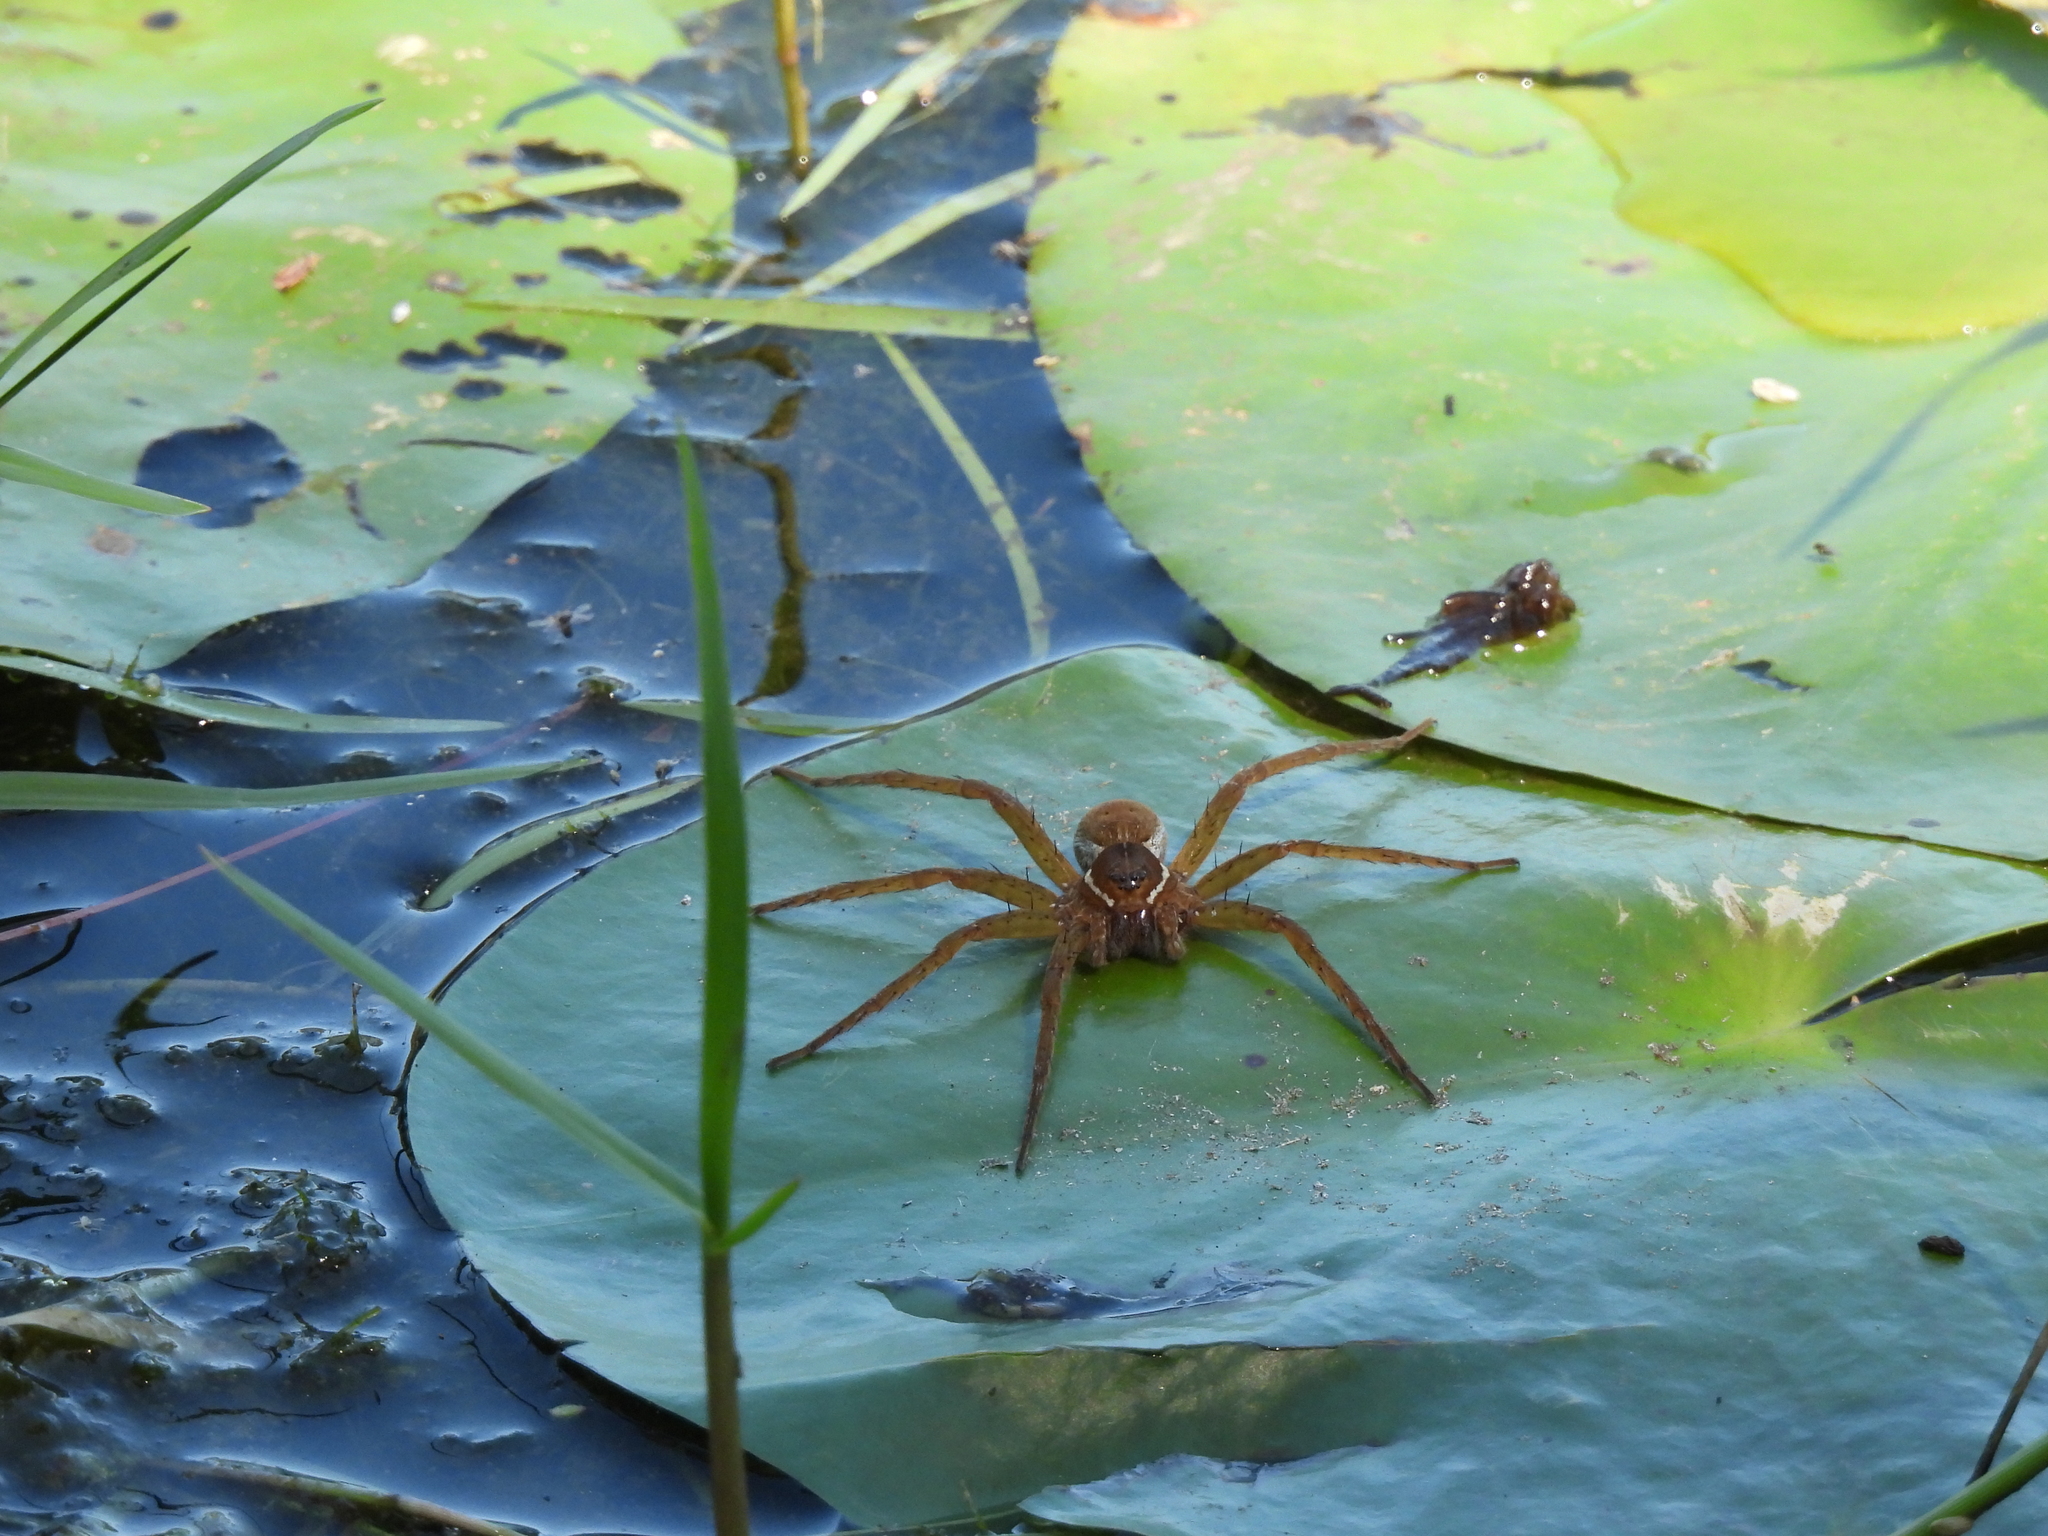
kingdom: Animalia
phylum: Arthropoda
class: Arachnida
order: Araneae
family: Pisauridae
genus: Dolomedes
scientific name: Dolomedes triton
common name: Six-spotted fishing spider
